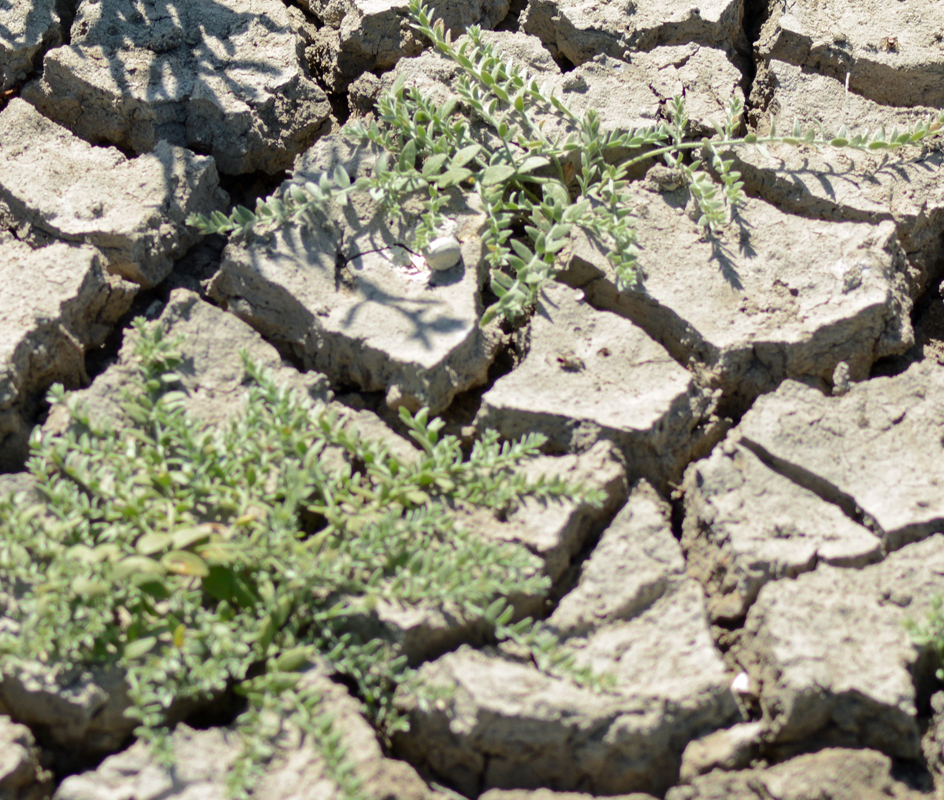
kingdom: Plantae
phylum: Tracheophyta
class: Magnoliopsida
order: Solanales
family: Convolvulaceae
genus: Cressa
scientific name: Cressa truxillensis
